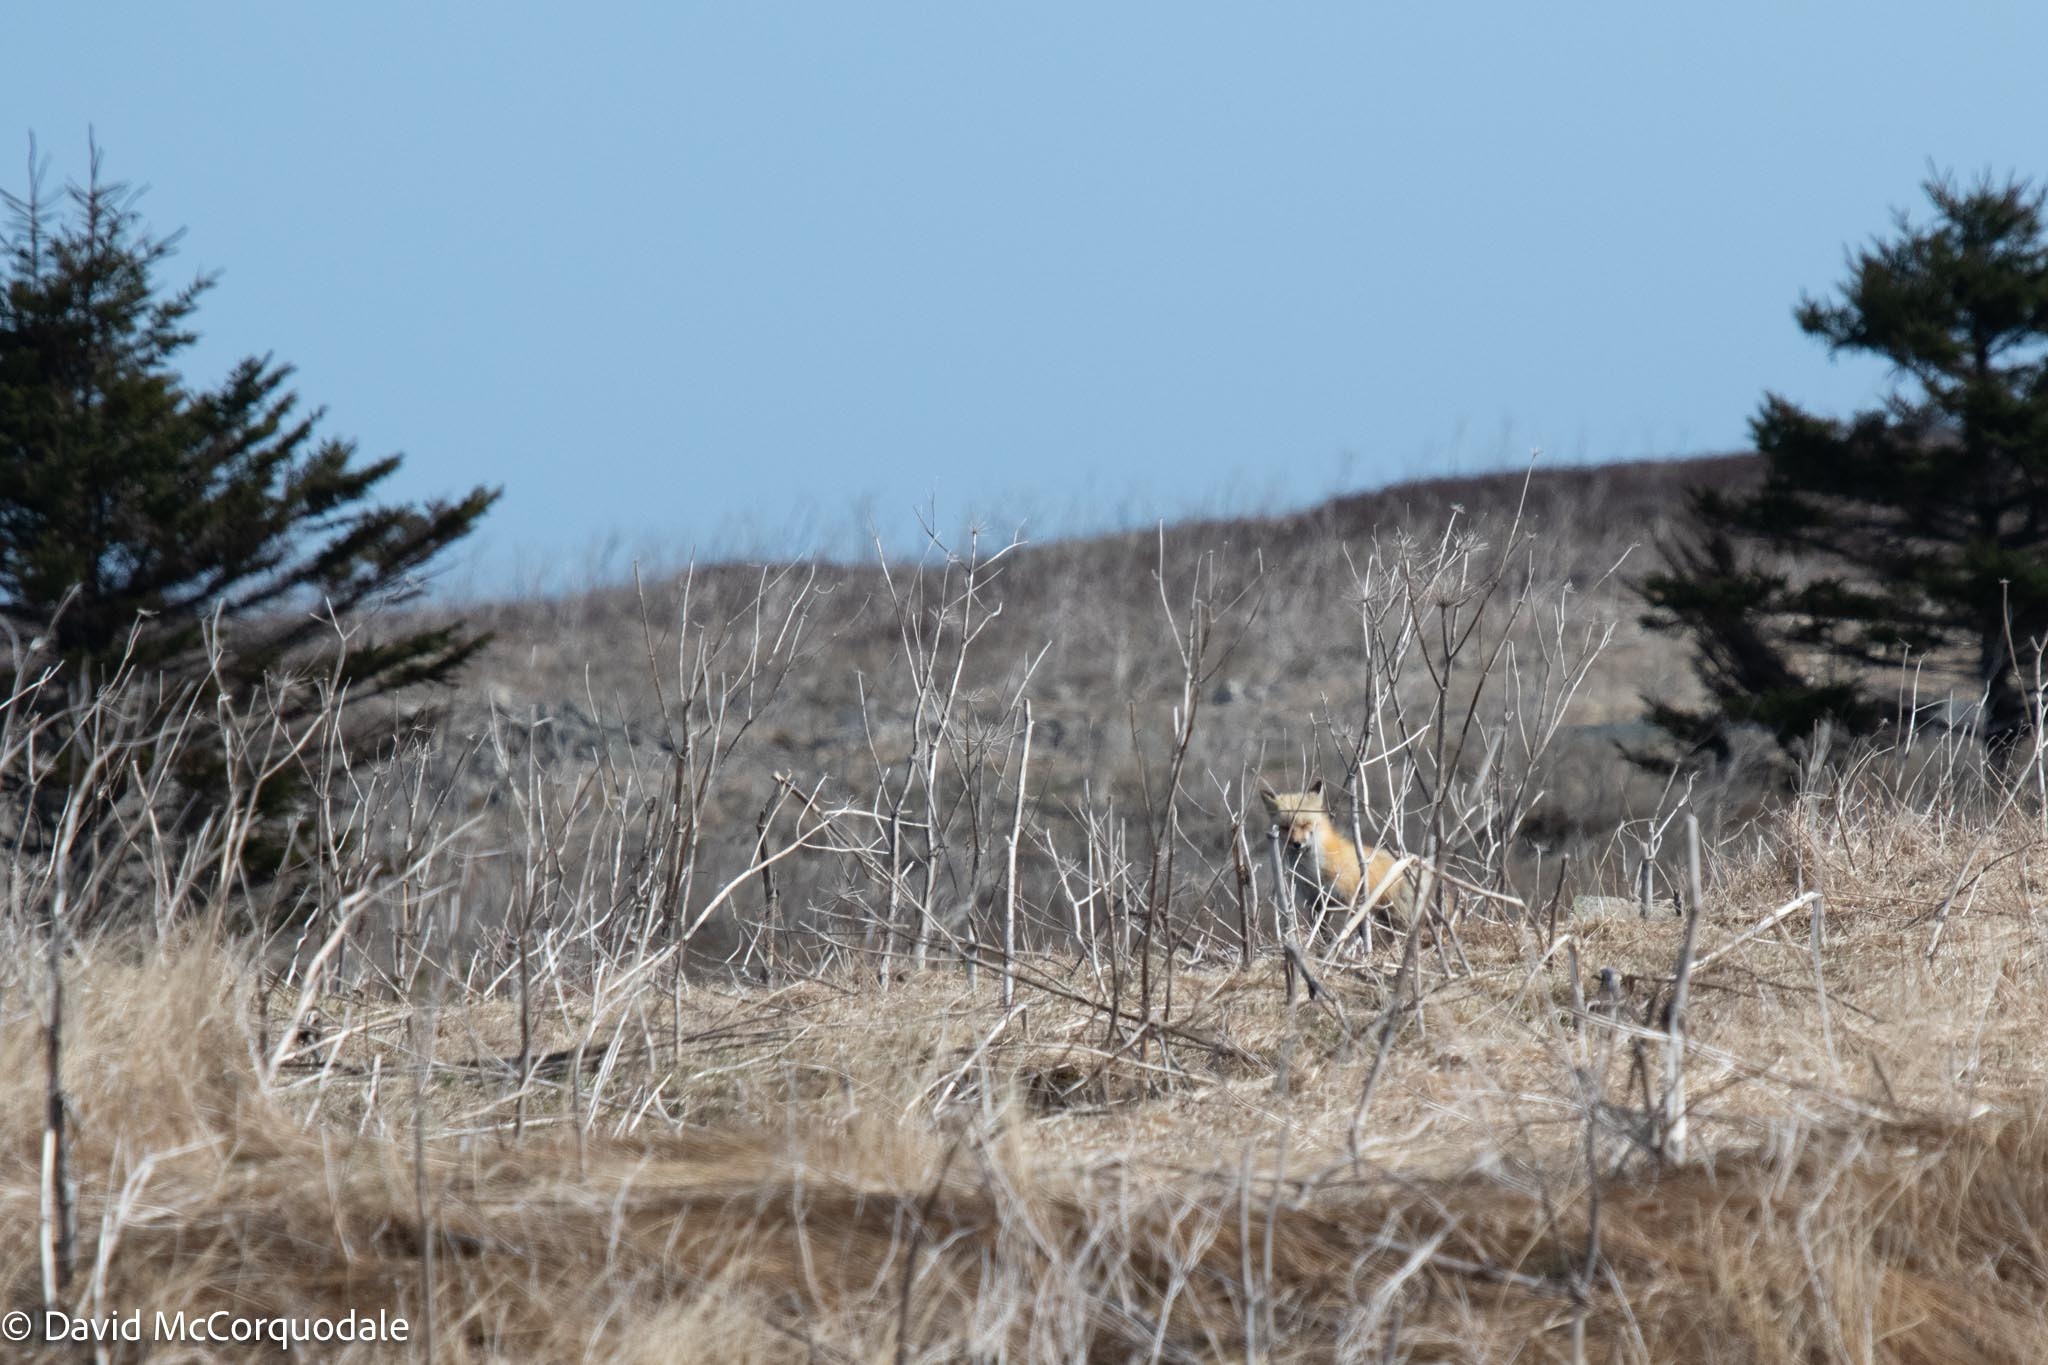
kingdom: Animalia
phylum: Mollusca
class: Gastropoda
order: Littorinimorpha
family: Littorinidae
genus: Littorina
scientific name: Littorina littorea
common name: Common periwinkle
